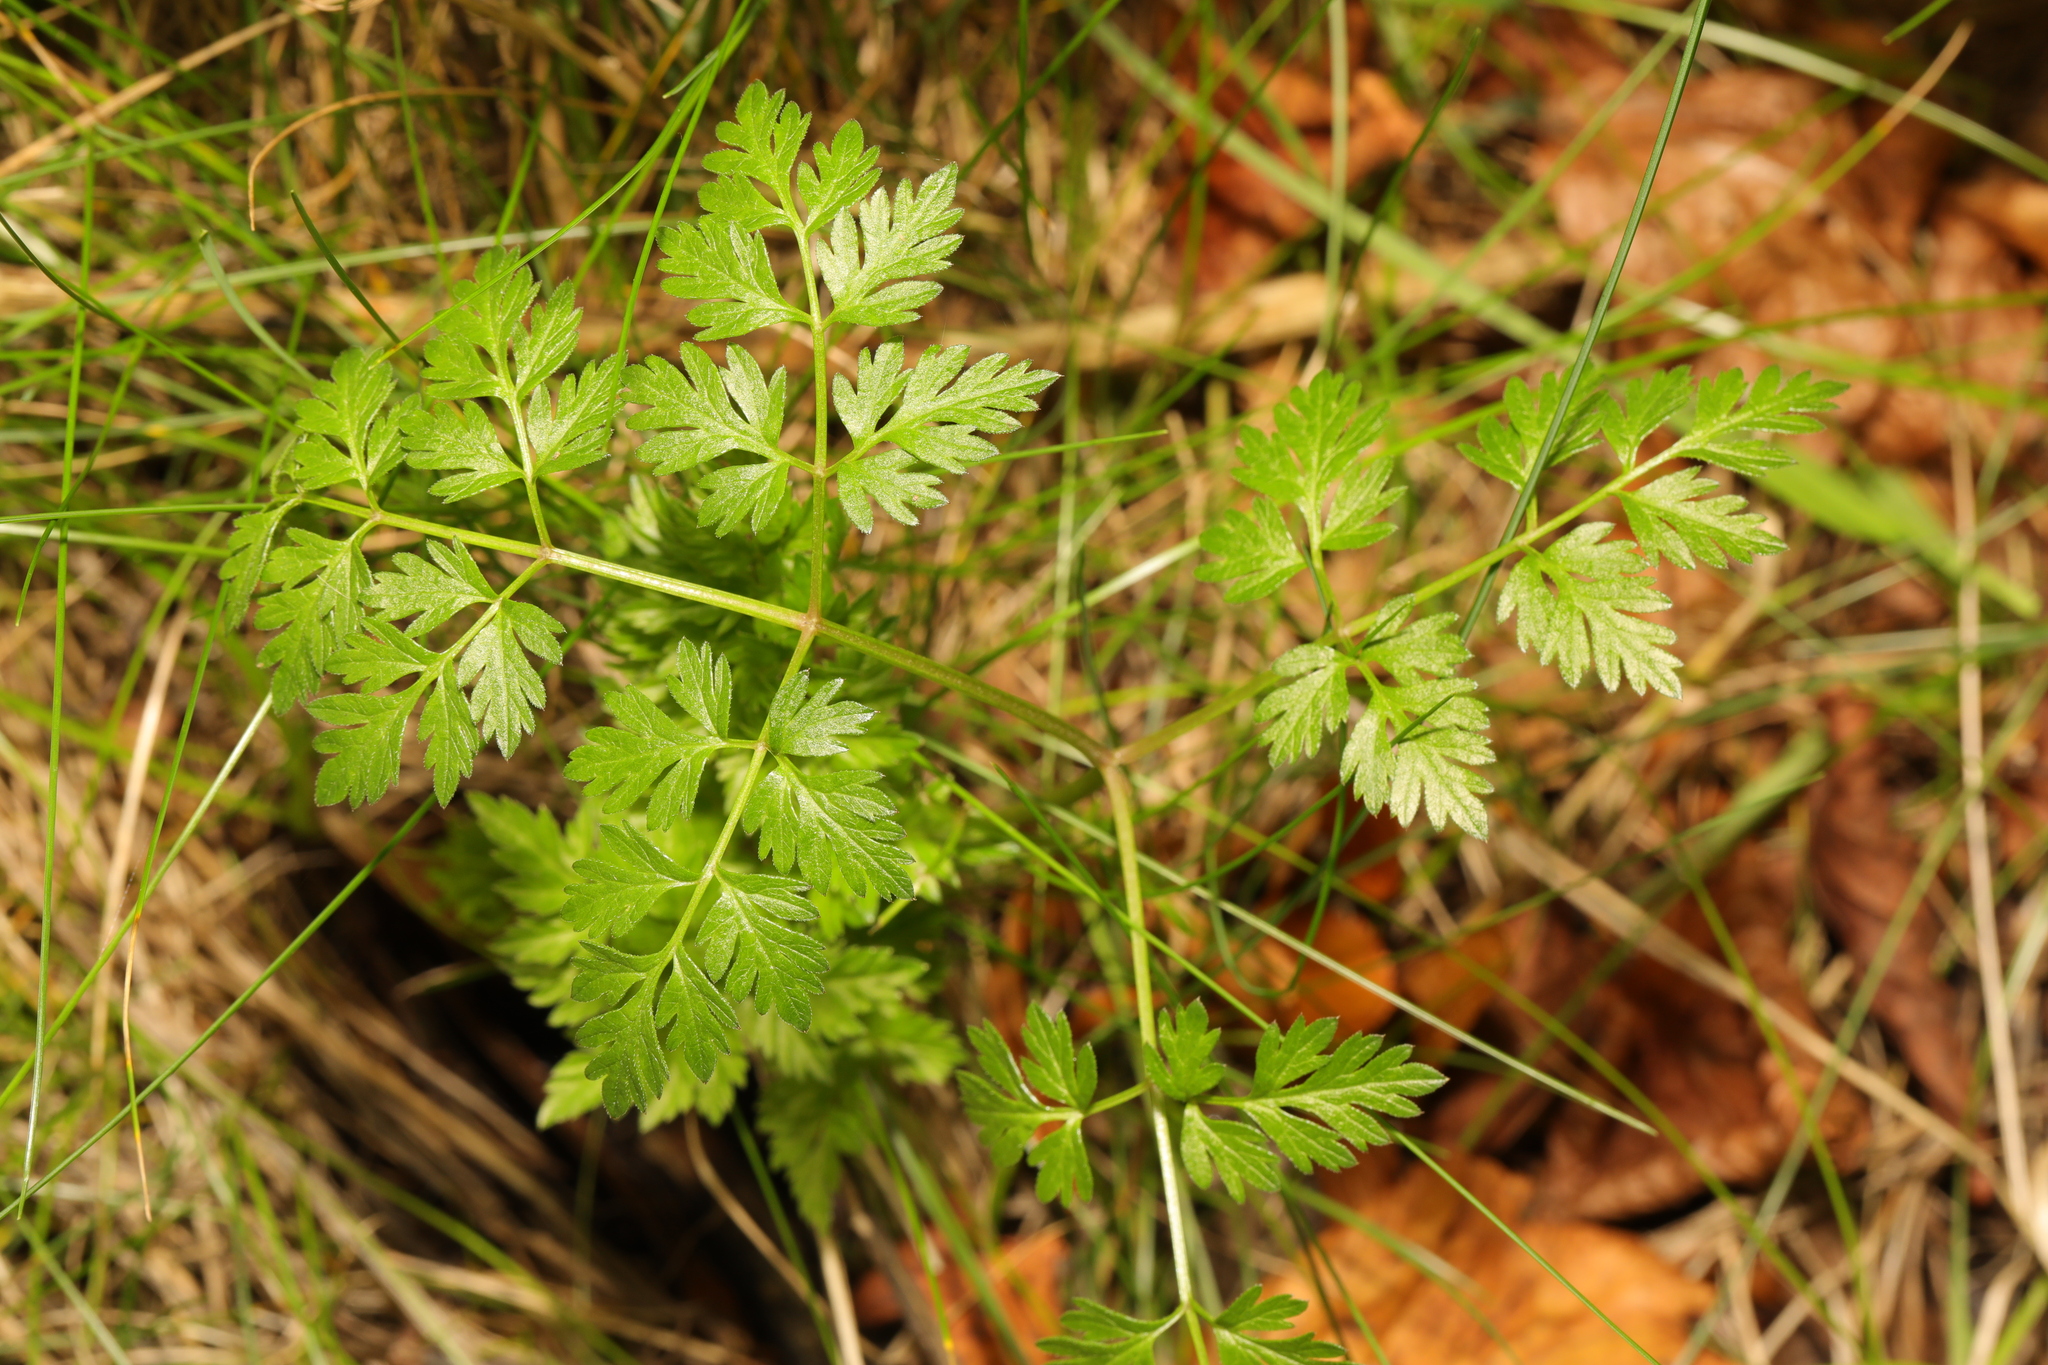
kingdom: Plantae
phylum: Tracheophyta
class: Magnoliopsida
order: Apiales
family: Apiaceae
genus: Anthriscus
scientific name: Anthriscus sylvestris
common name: Cow parsley
